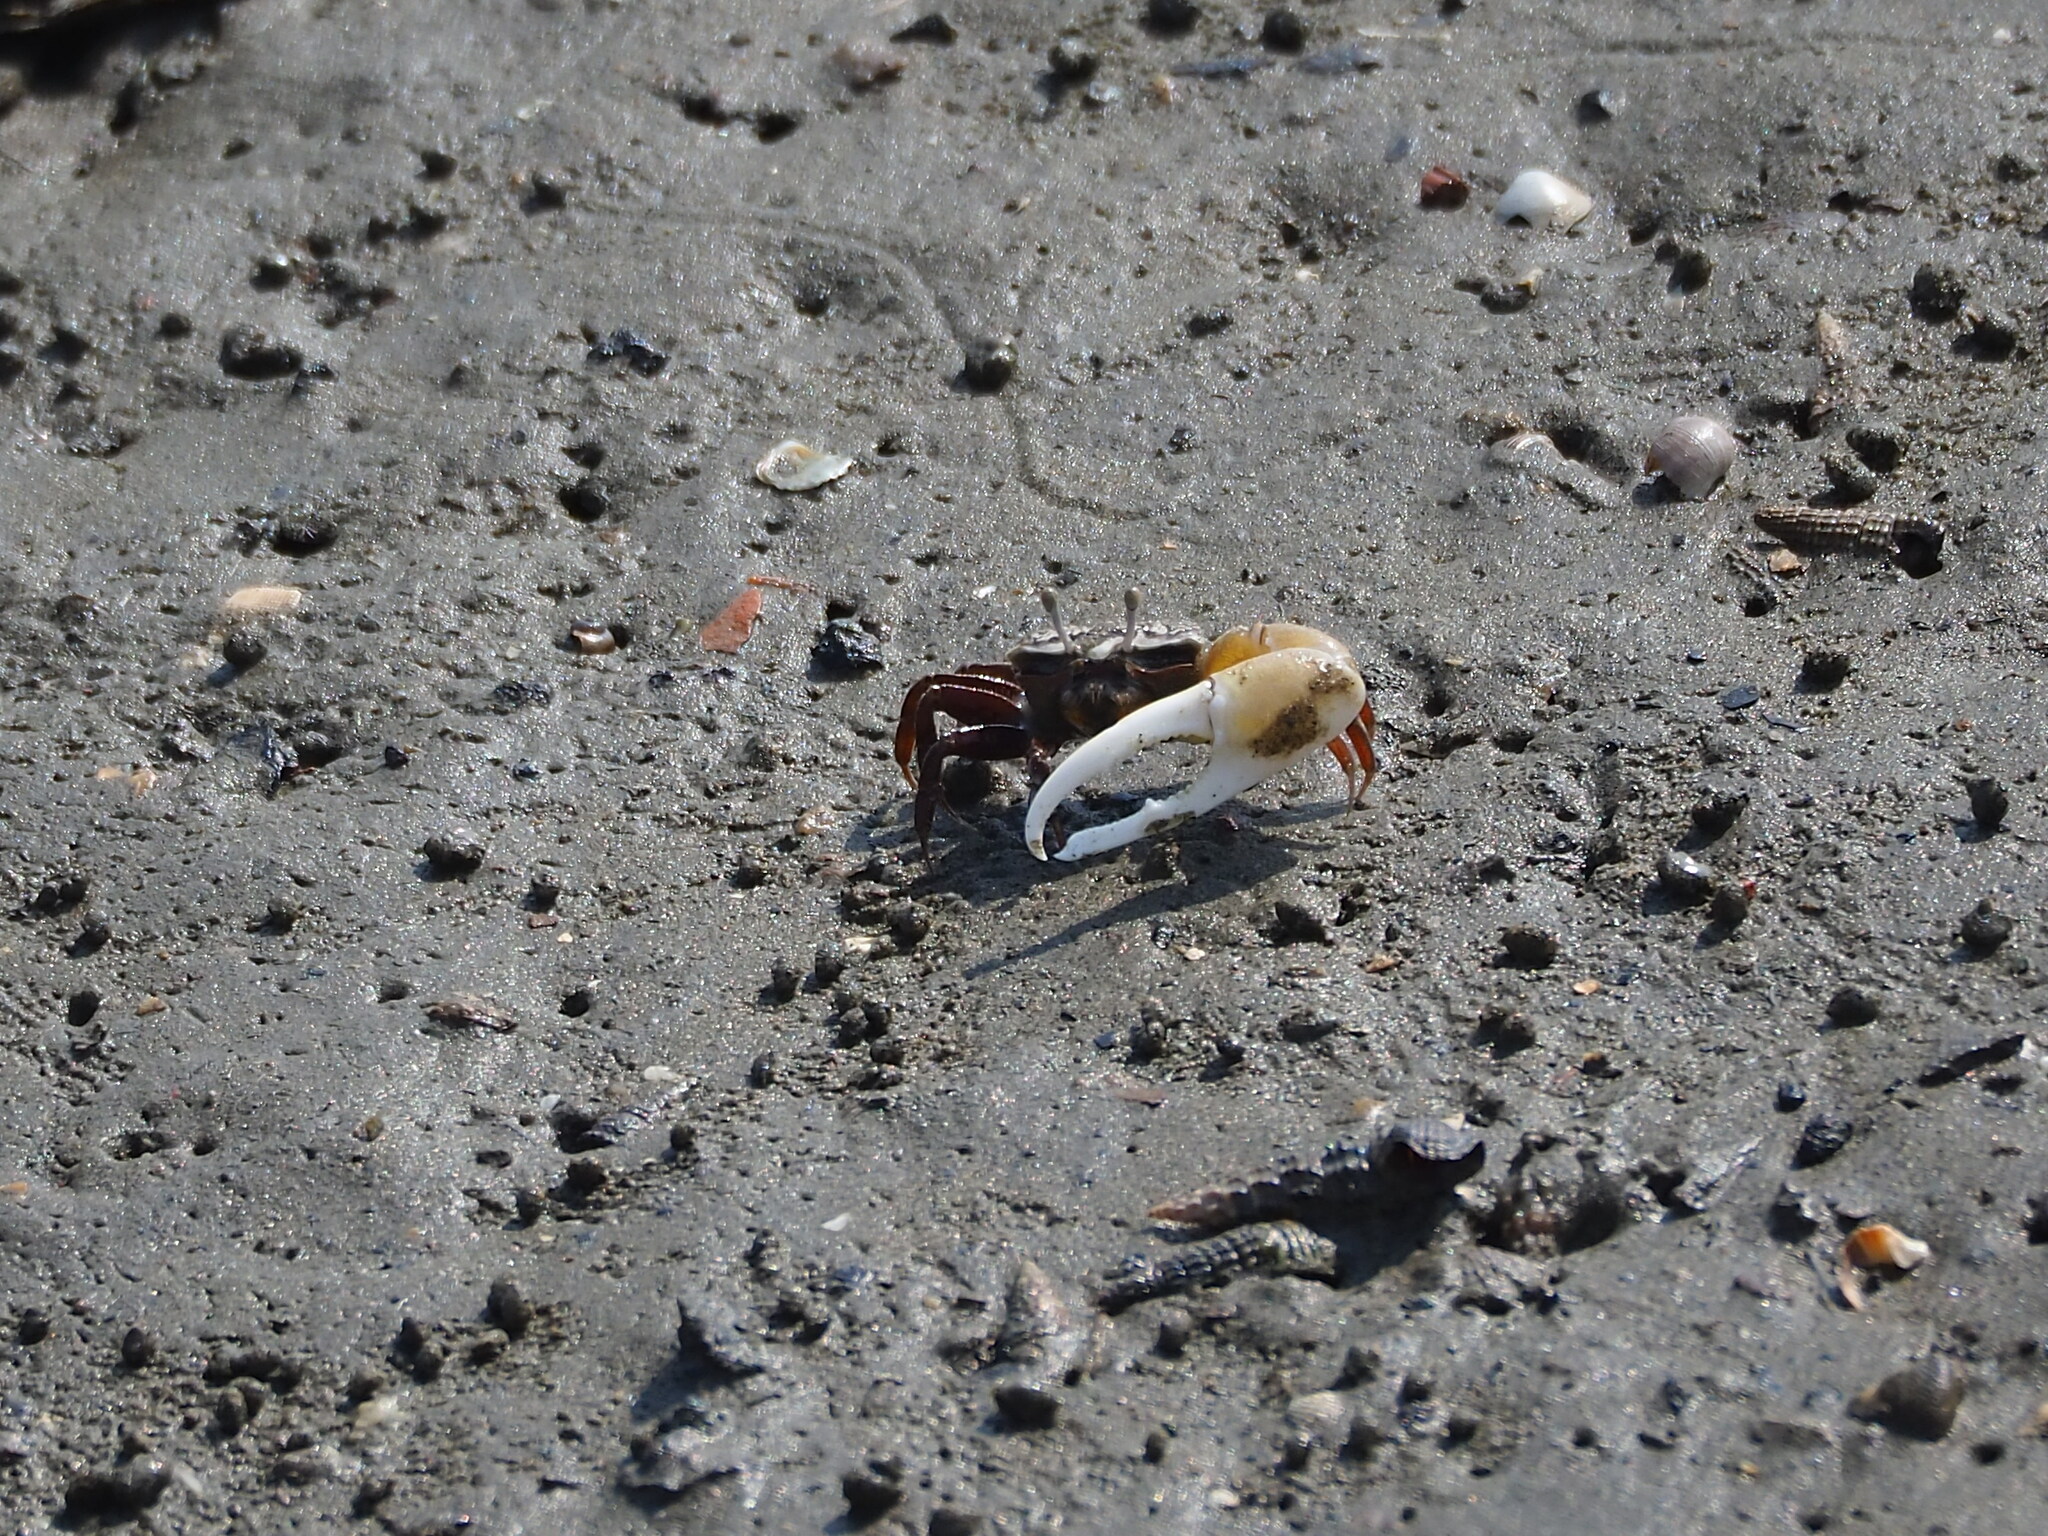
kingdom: Animalia
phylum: Arthropoda
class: Malacostraca
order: Decapoda
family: Ocypodidae
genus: Austruca
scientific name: Austruca lactea
